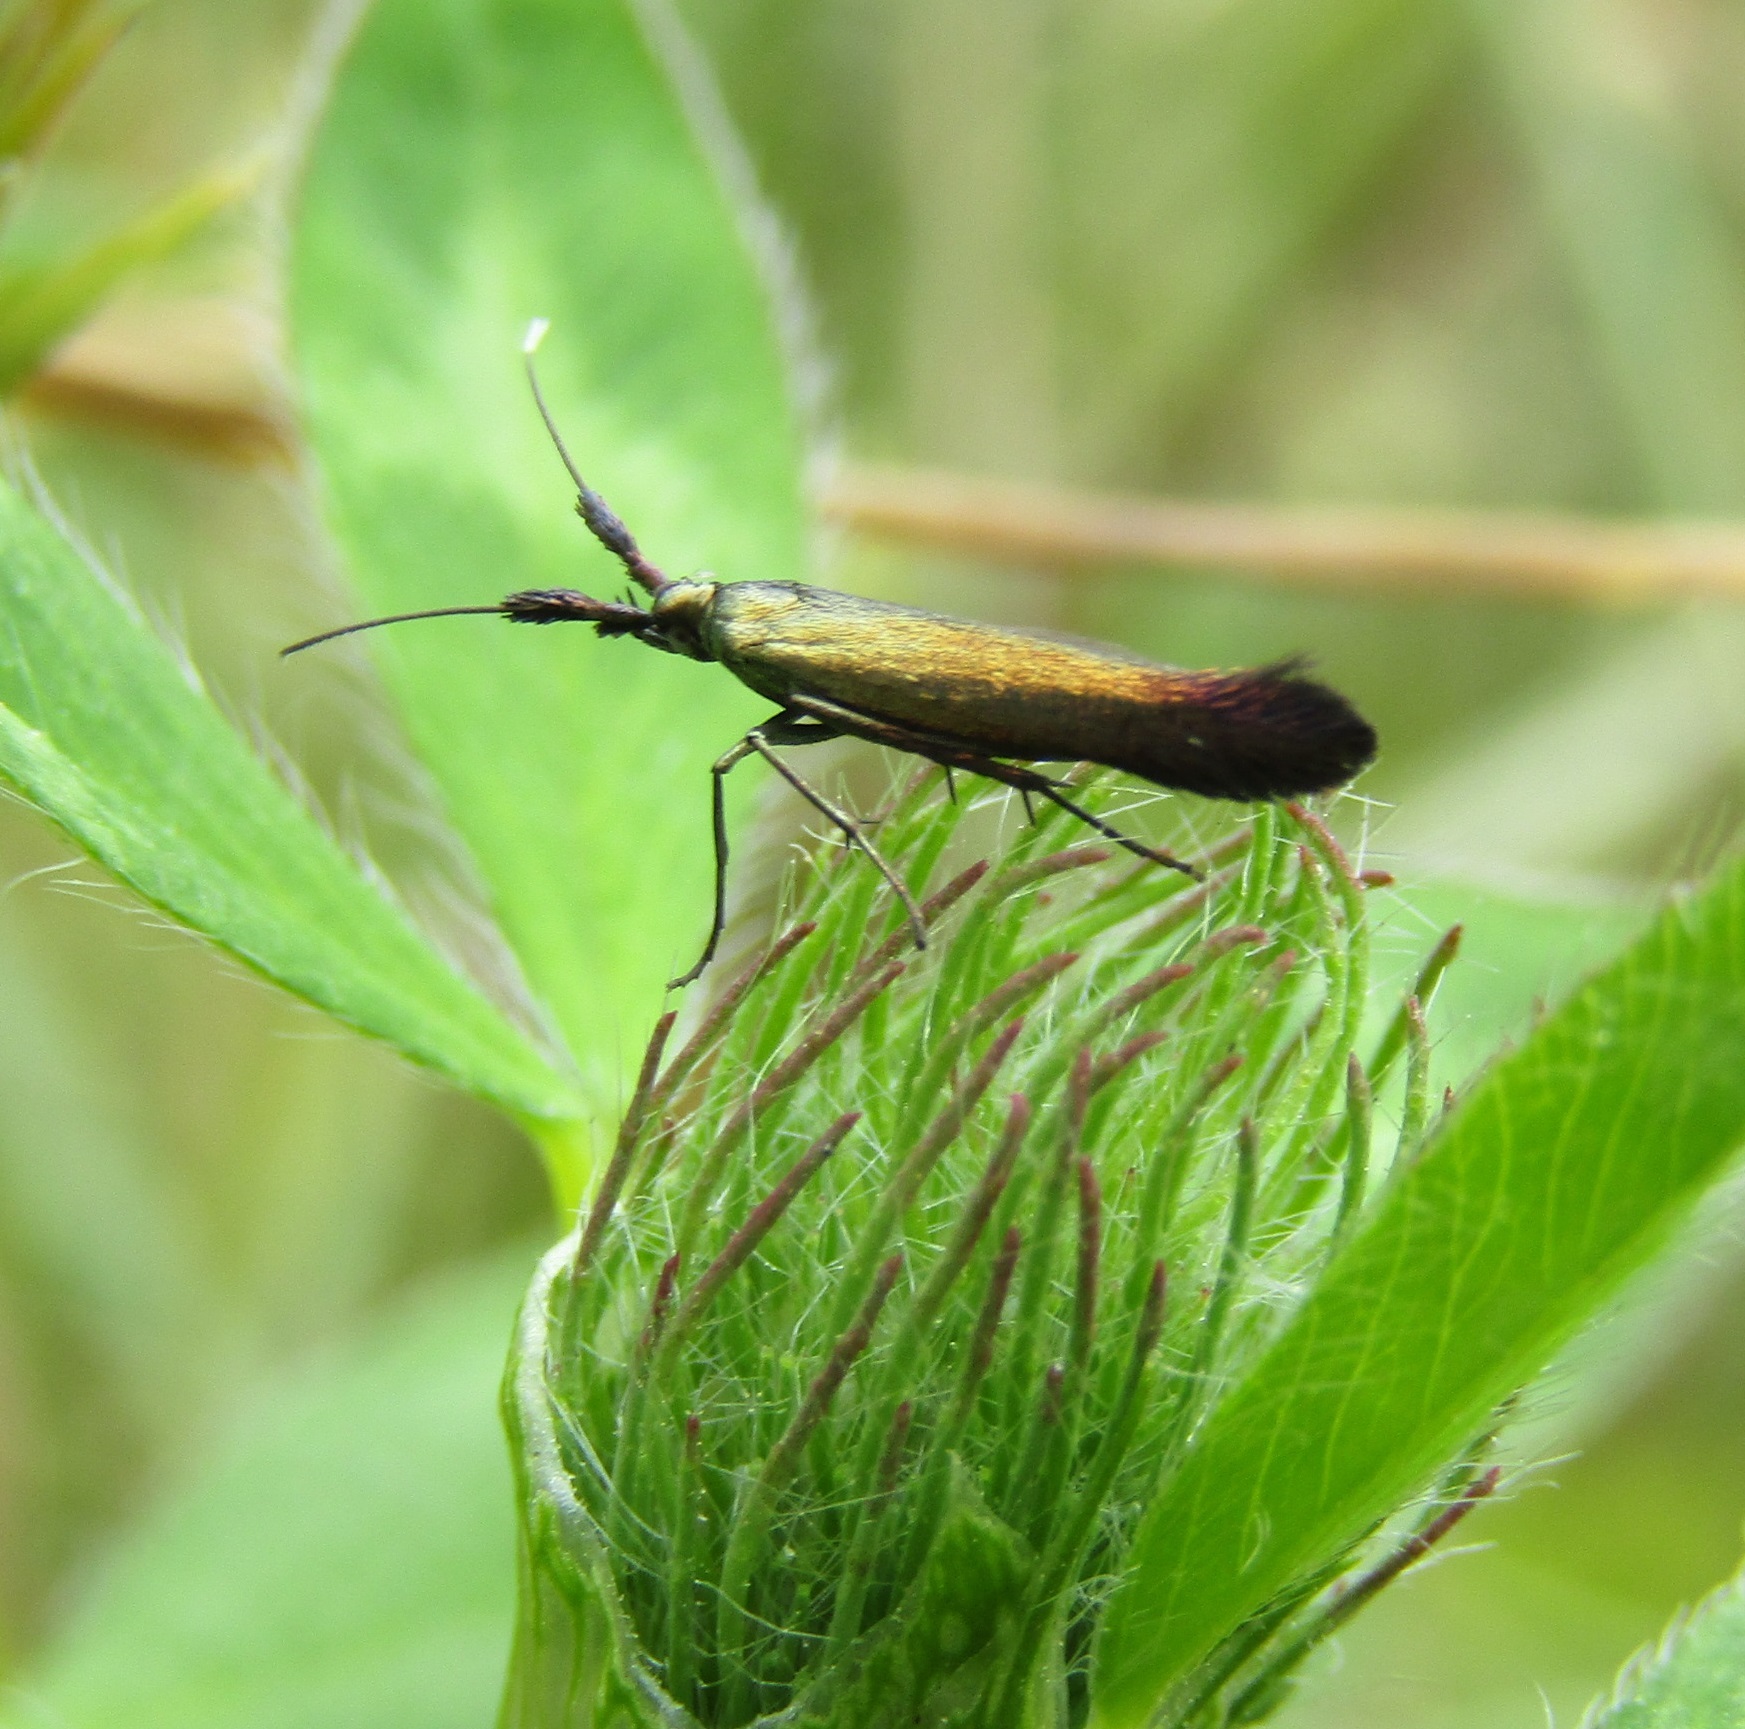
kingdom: Animalia
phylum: Arthropoda
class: Insecta
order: Lepidoptera
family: Coleophoridae
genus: Coleophora
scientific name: Coleophora deauratella
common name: Red-clover case-bearer
